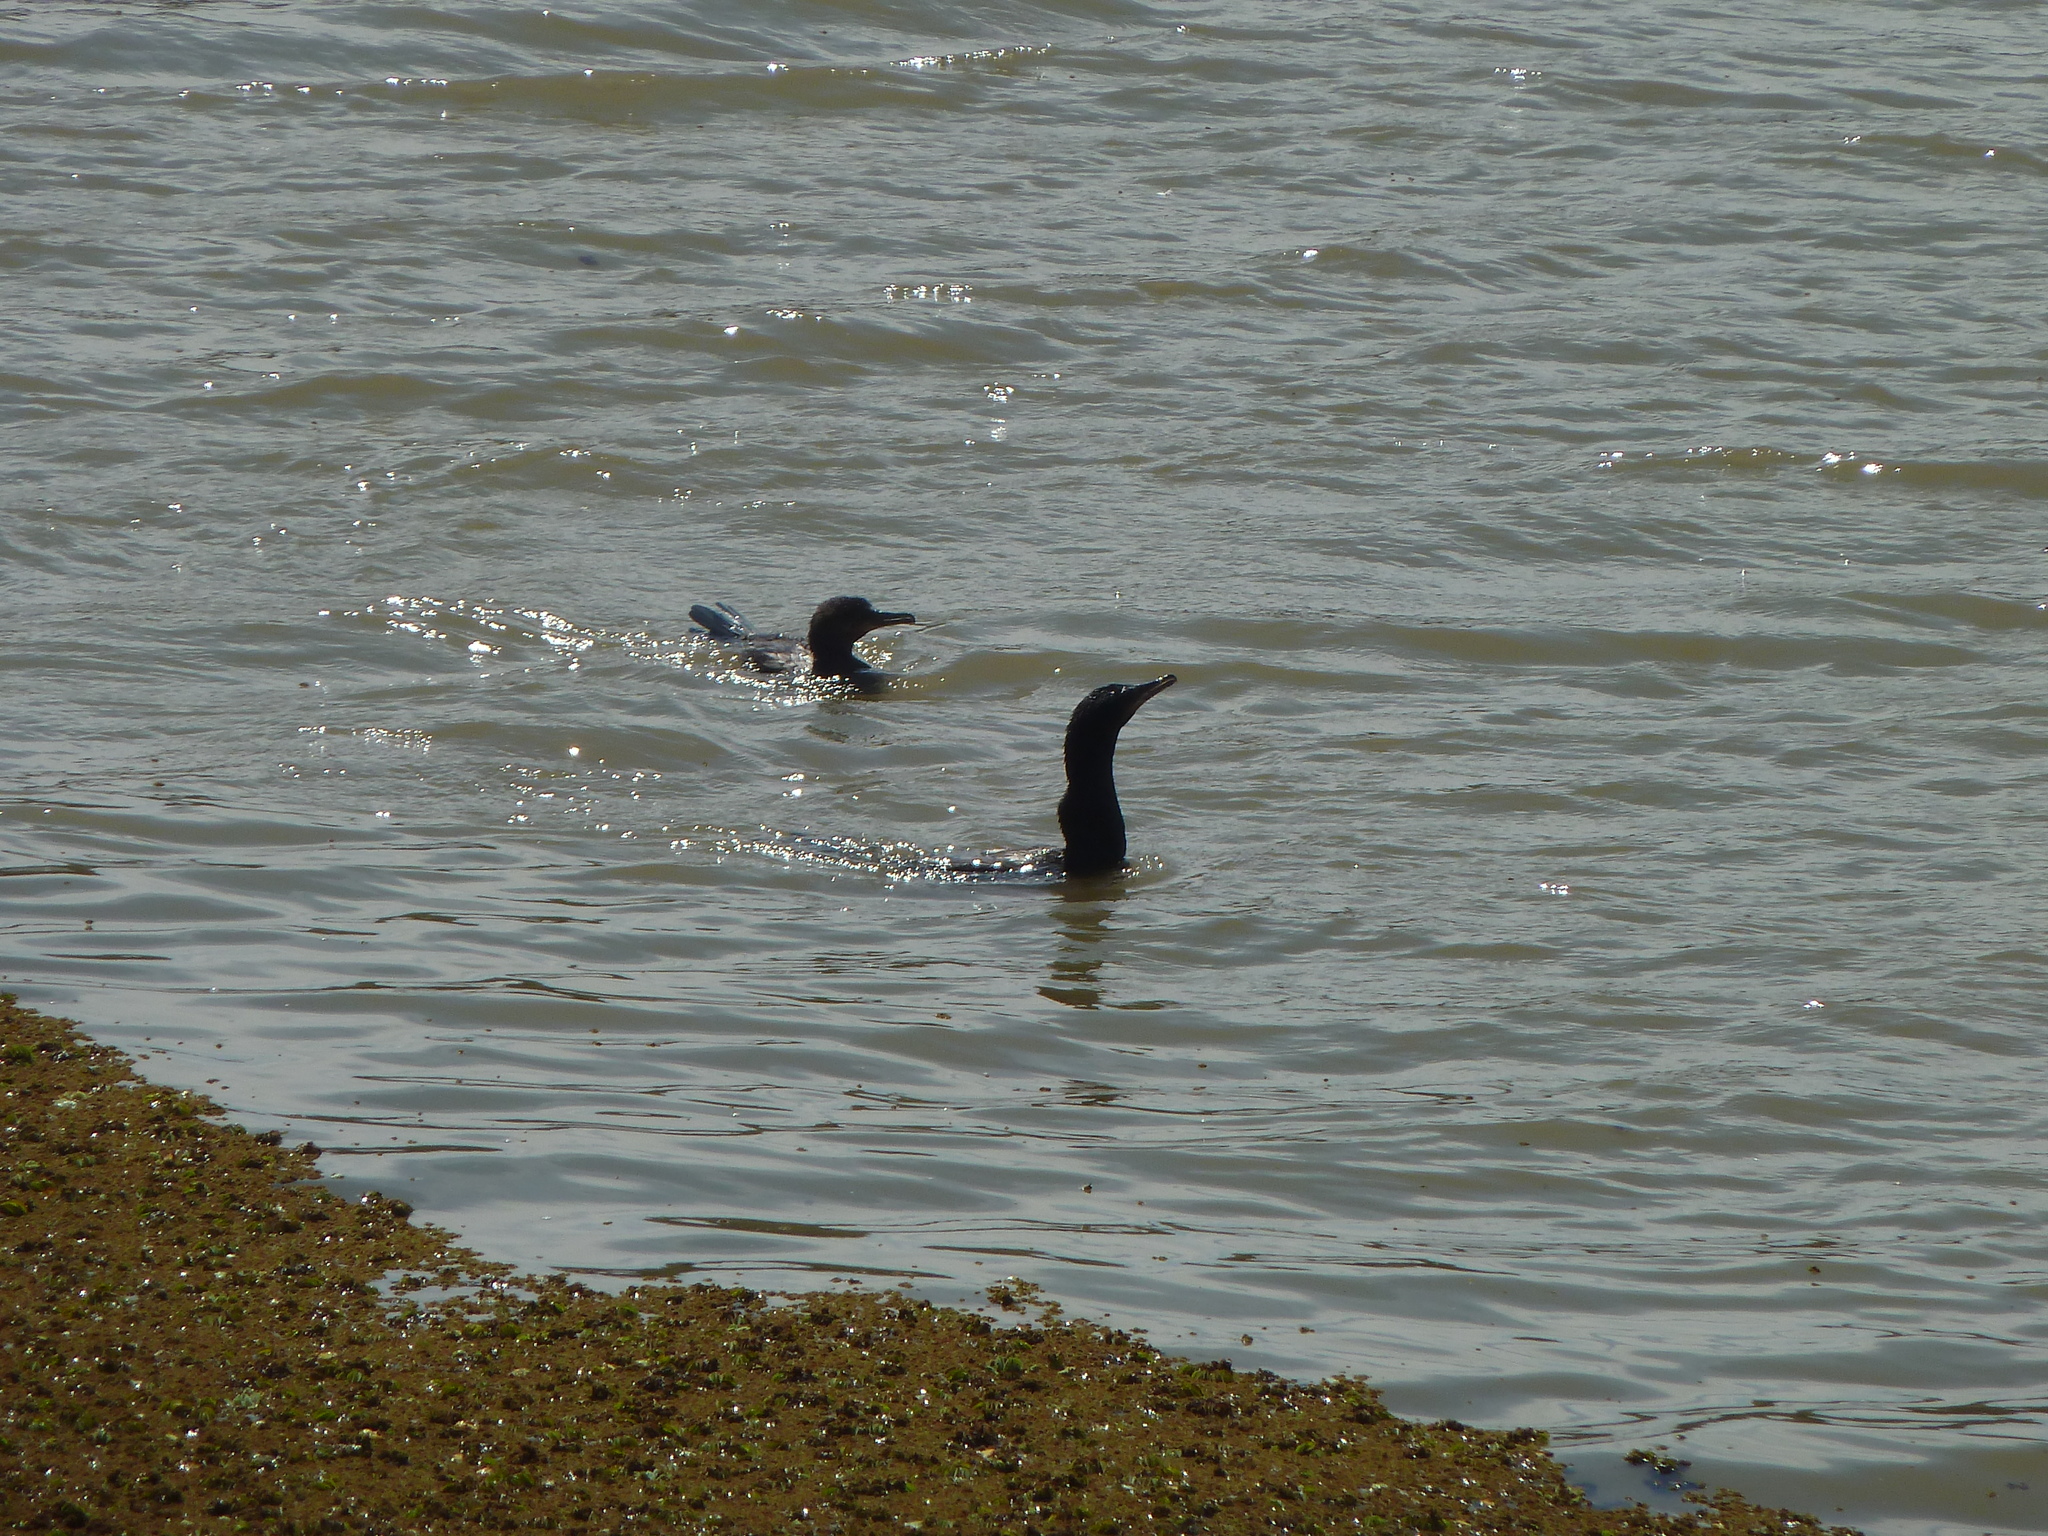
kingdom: Animalia
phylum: Chordata
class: Aves
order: Suliformes
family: Phalacrocoracidae
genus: Phalacrocorax
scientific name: Phalacrocorax brasilianus
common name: Neotropic cormorant
